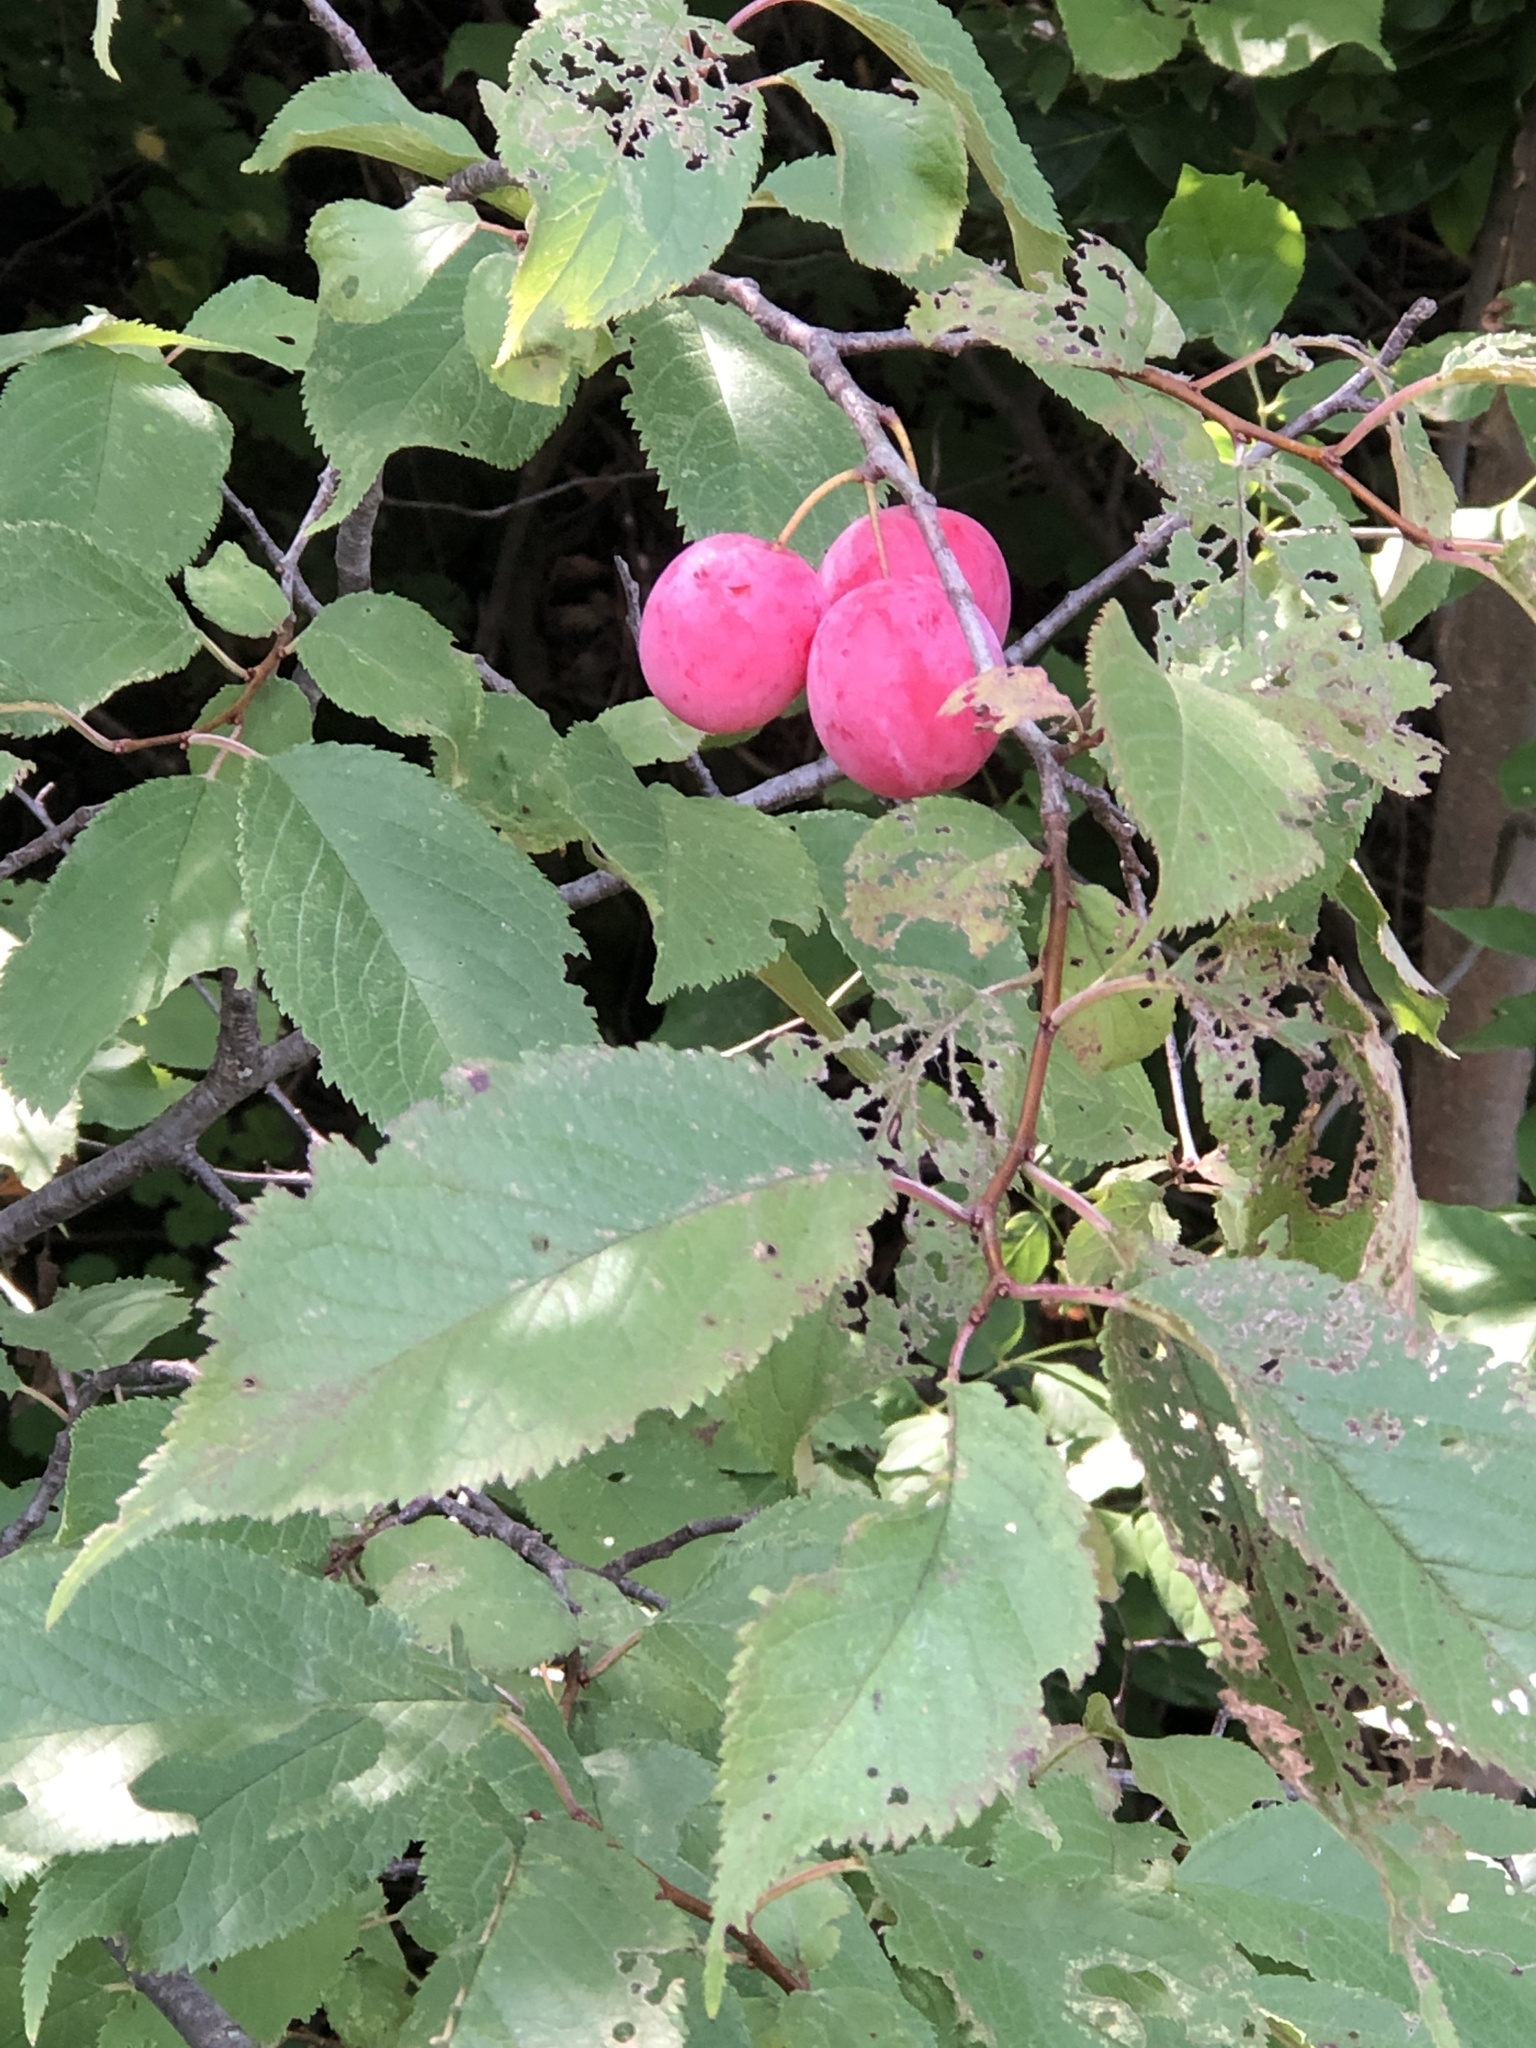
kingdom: Plantae
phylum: Tracheophyta
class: Magnoliopsida
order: Rosales
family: Rosaceae
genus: Prunus
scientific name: Prunus americana
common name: American plum
